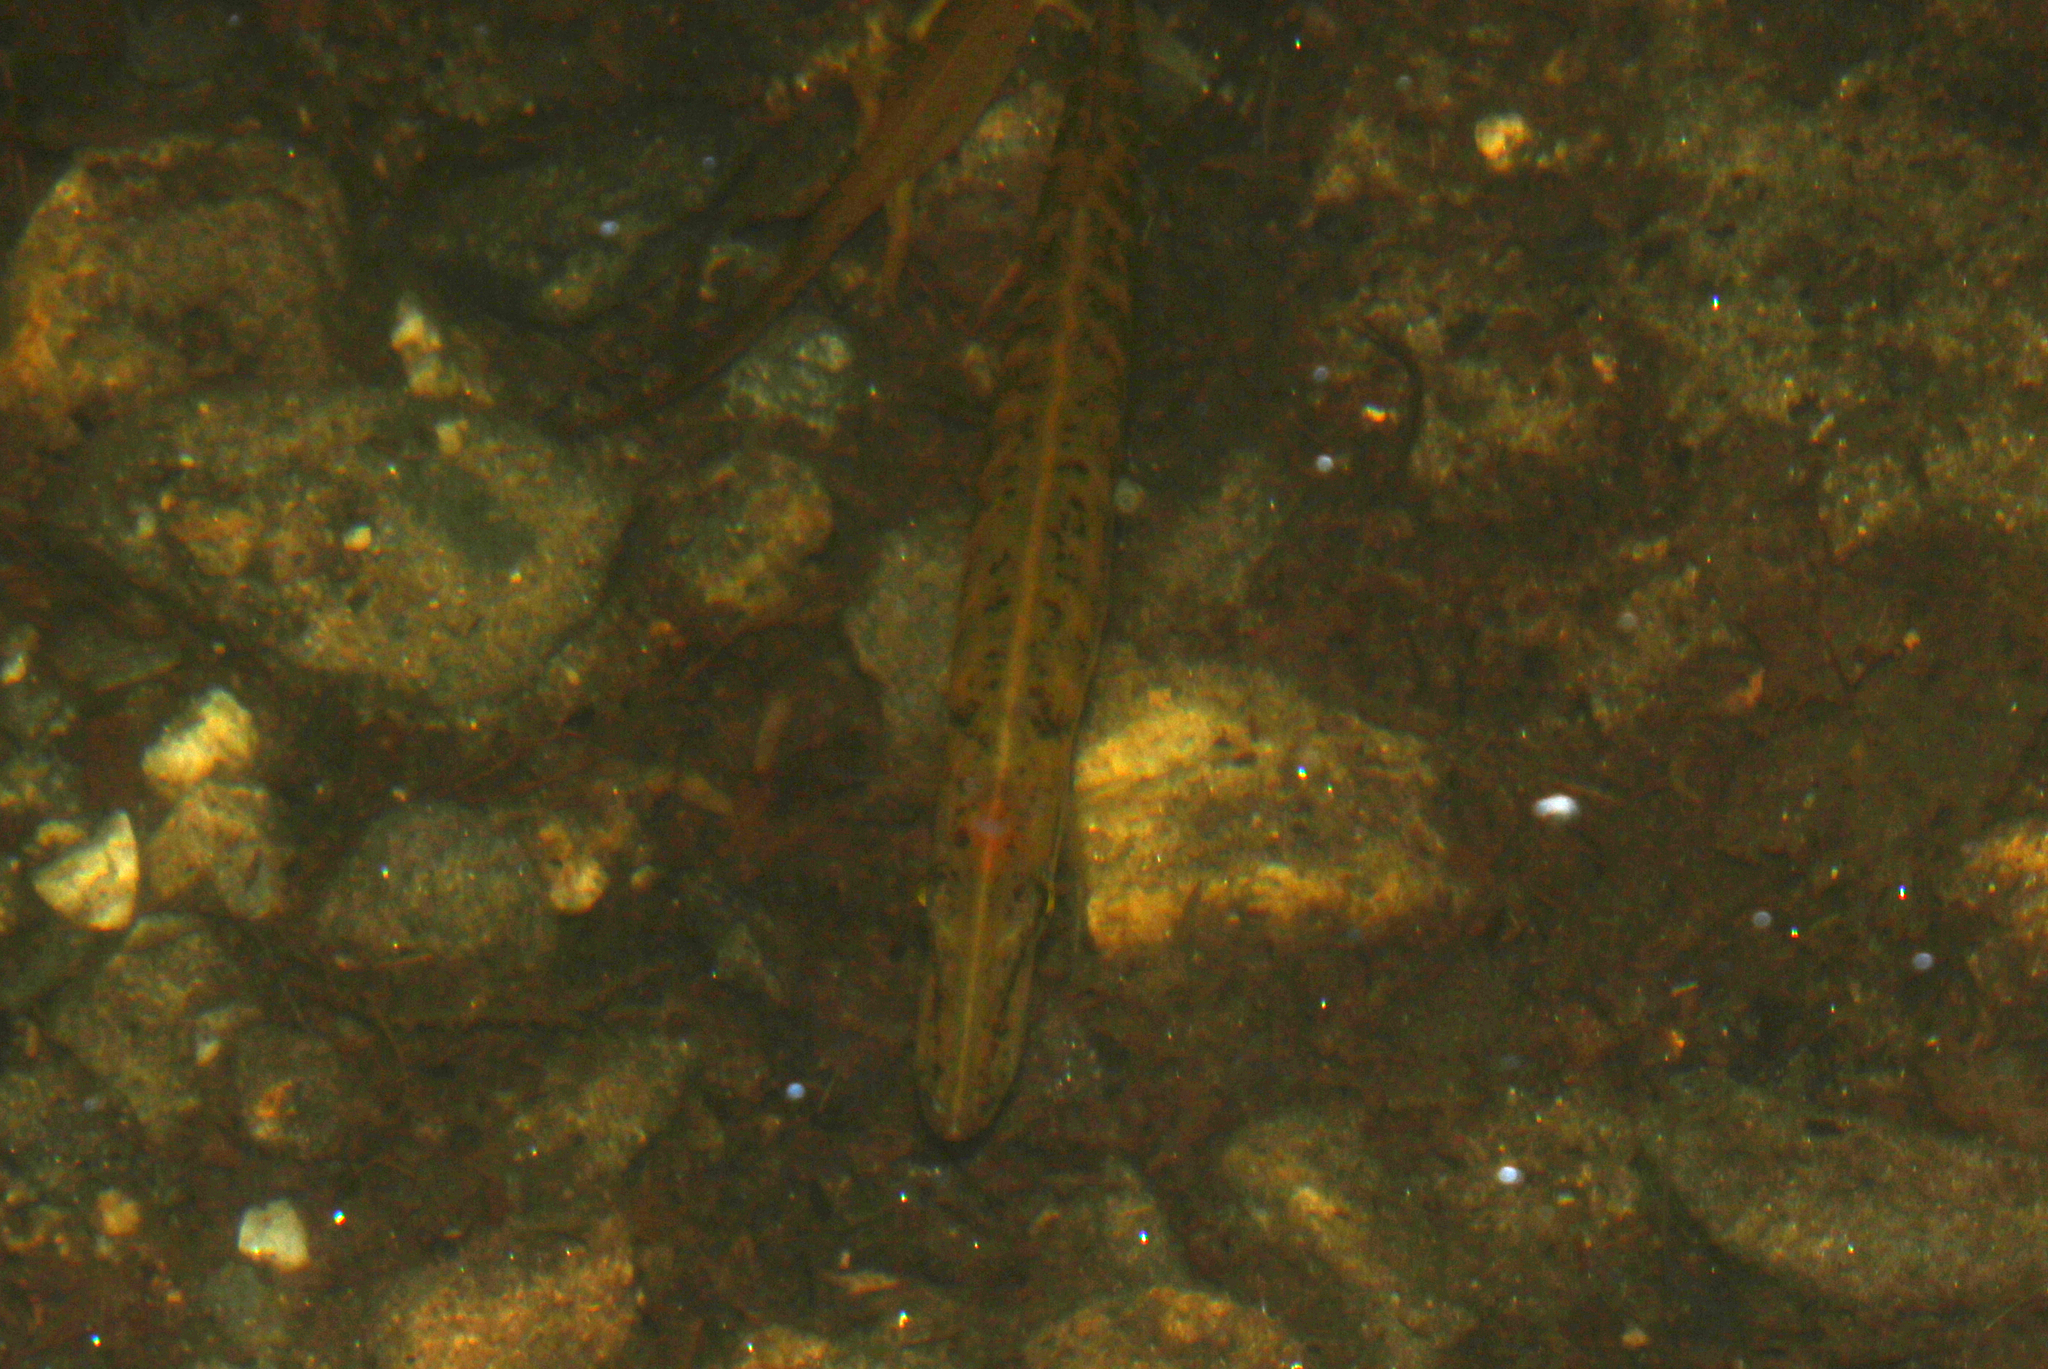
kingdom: Animalia
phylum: Chordata
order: Esociformes
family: Esocidae
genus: Esox
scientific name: Esox niger
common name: Chain pickerel
